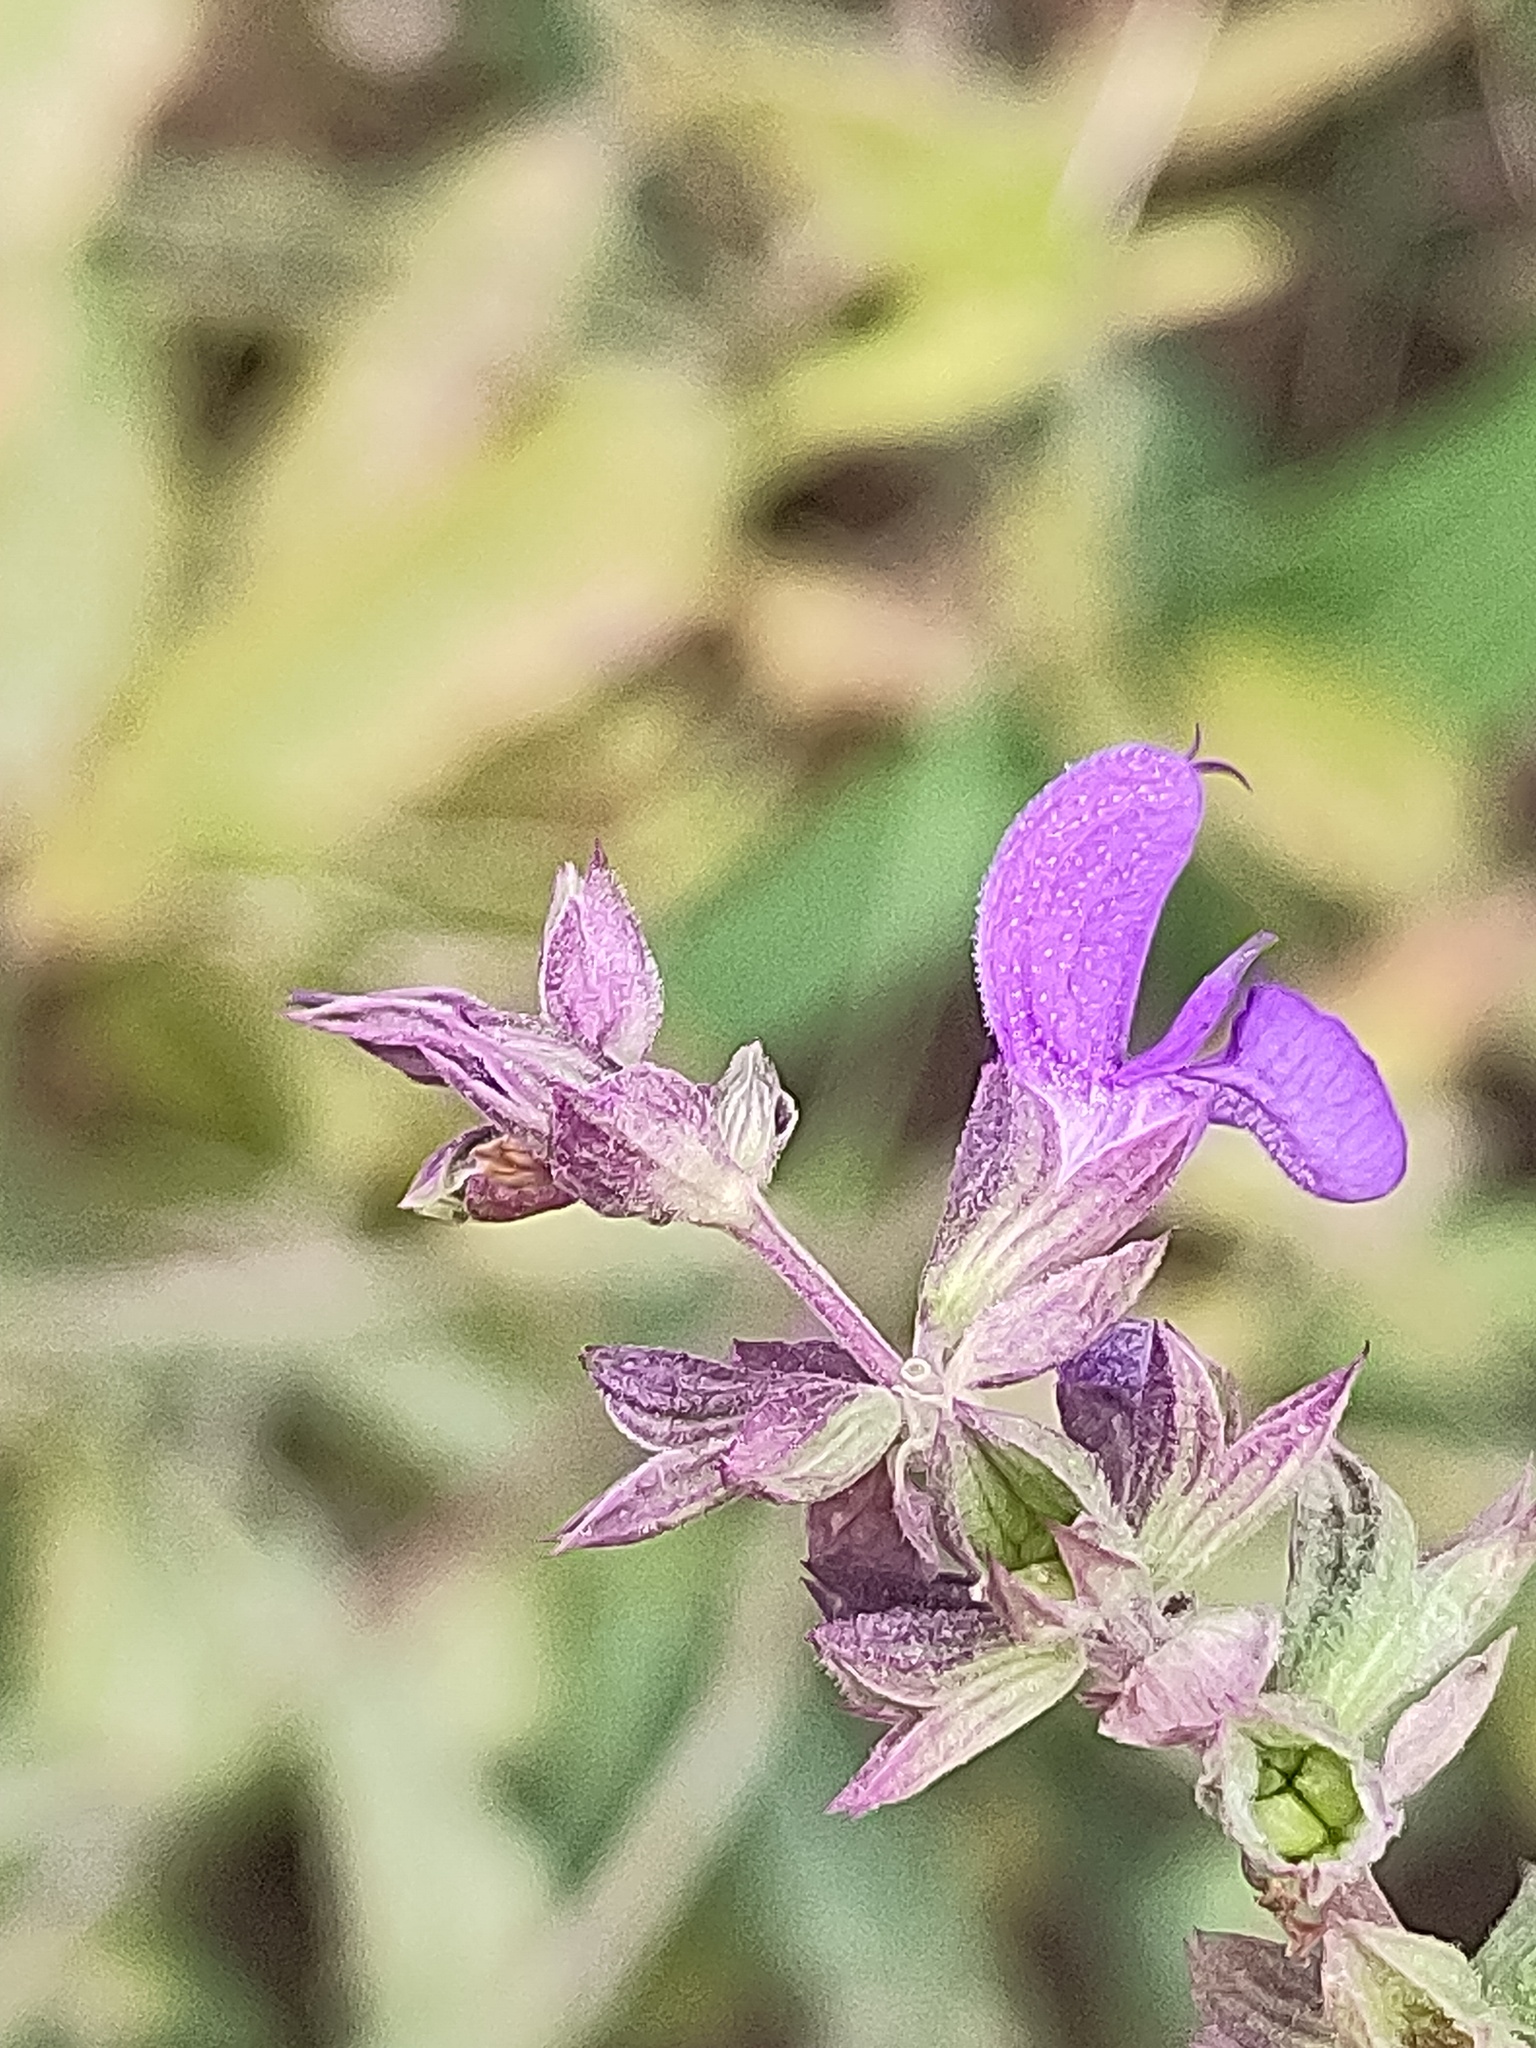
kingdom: Plantae
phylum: Tracheophyta
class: Magnoliopsida
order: Lamiales
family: Lamiaceae
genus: Salvia
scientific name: Salvia nemorosa
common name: Balkan clary
